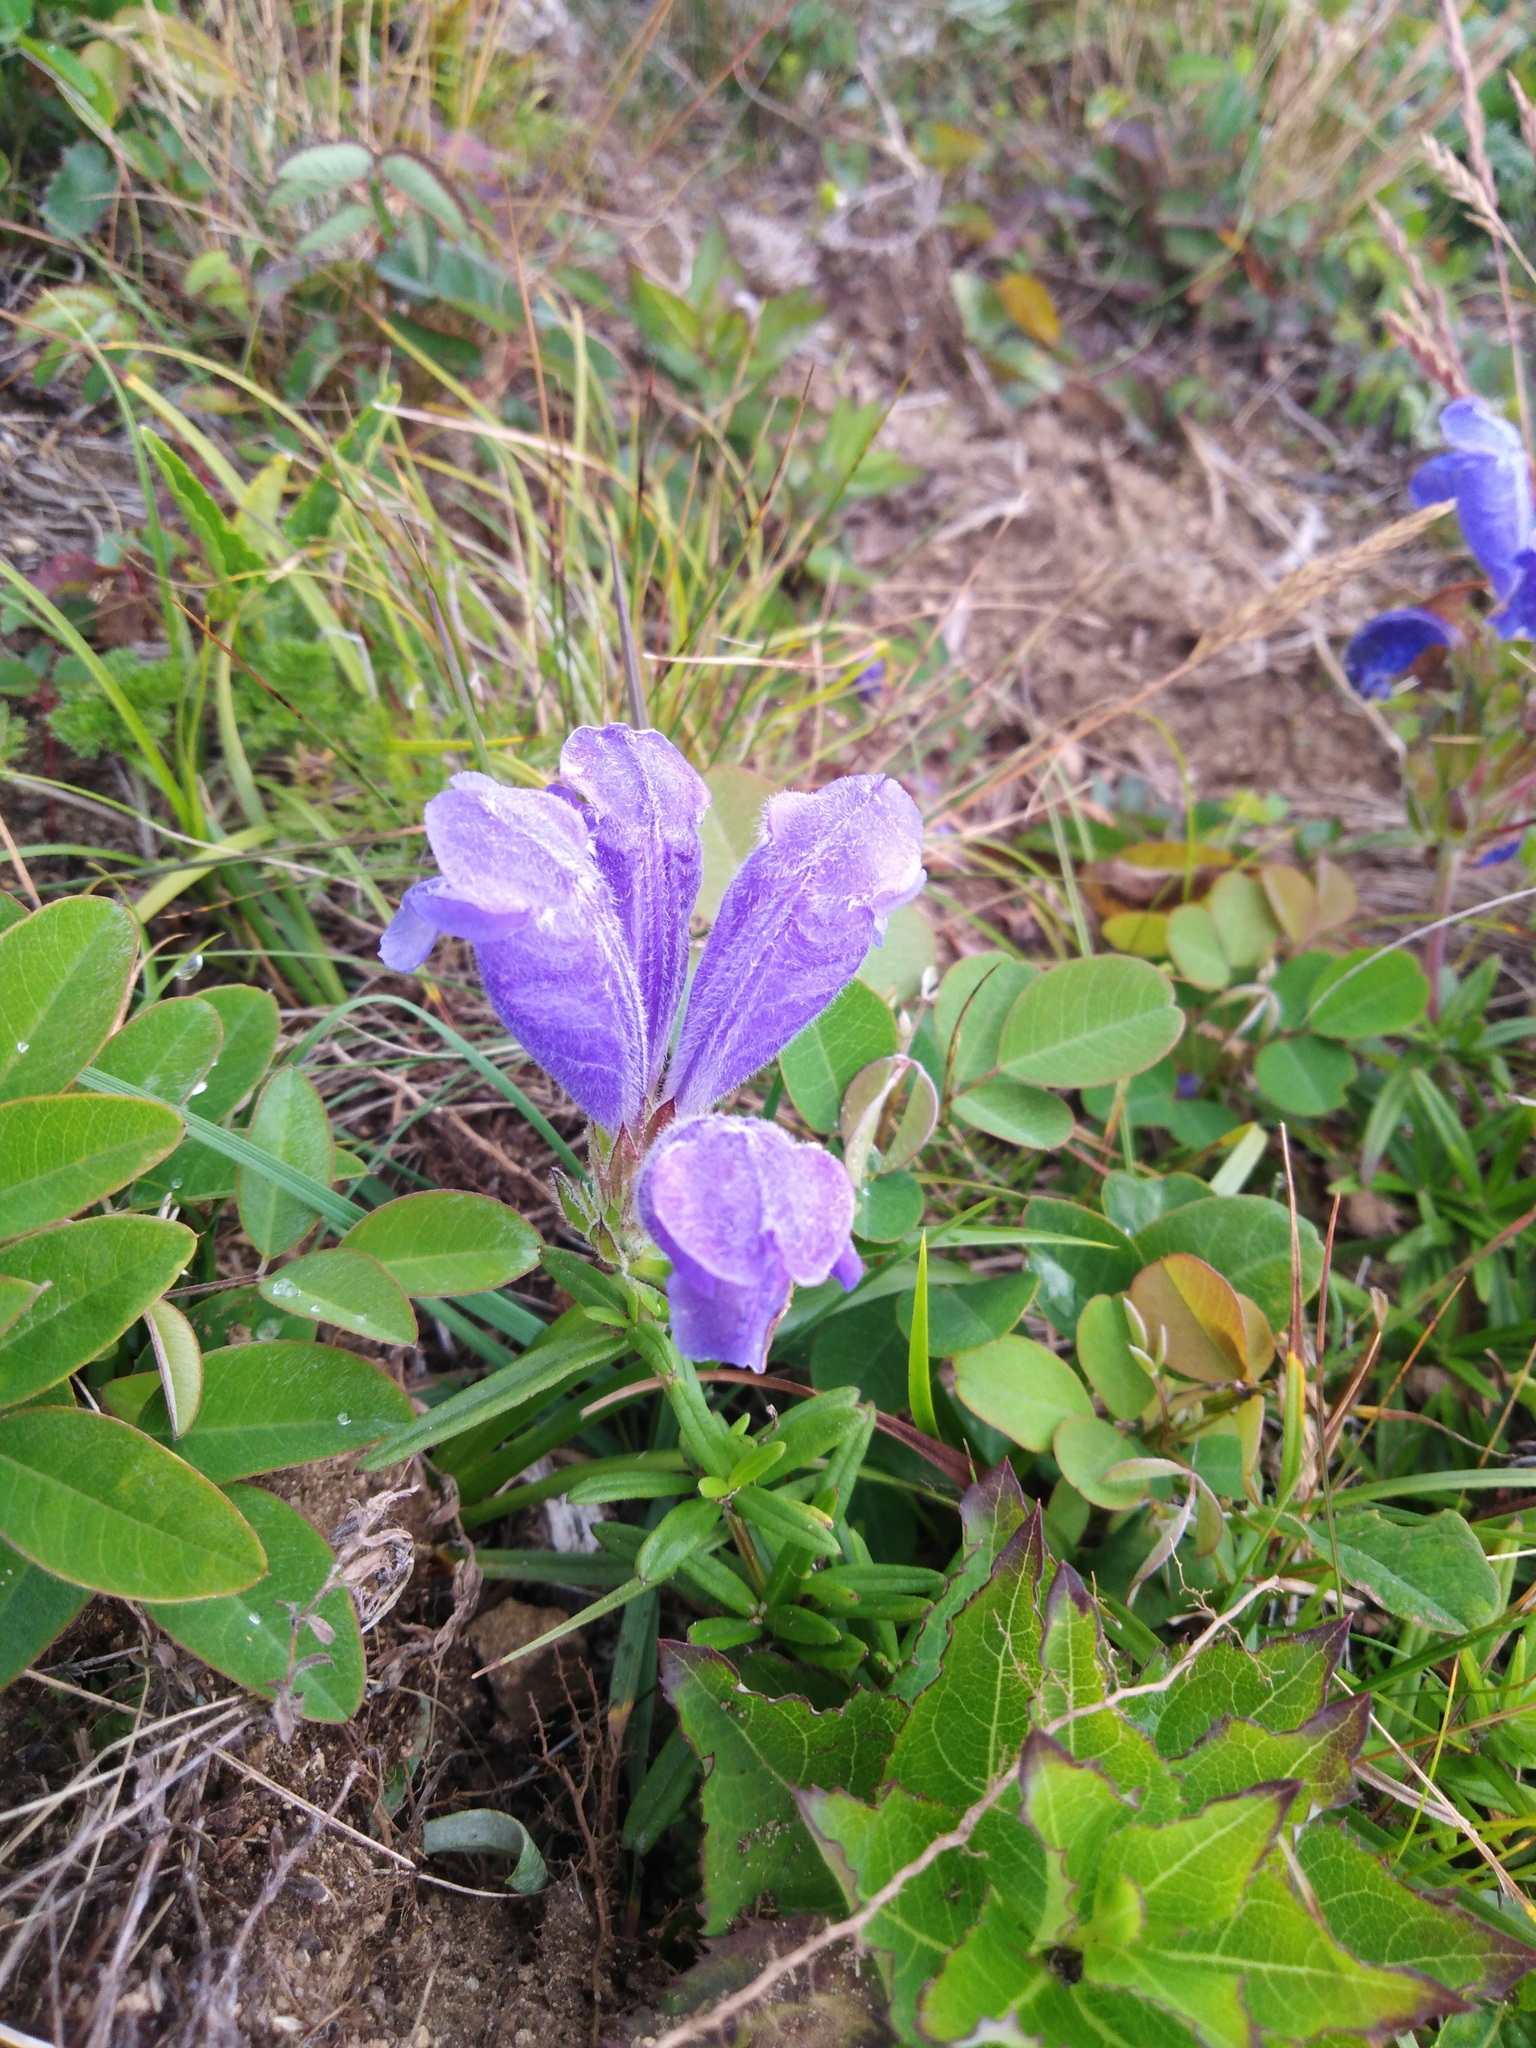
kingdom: Plantae
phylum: Tracheophyta
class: Magnoliopsida
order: Lamiales
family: Lamiaceae
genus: Dracocephalum
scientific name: Dracocephalum charkeviczii
